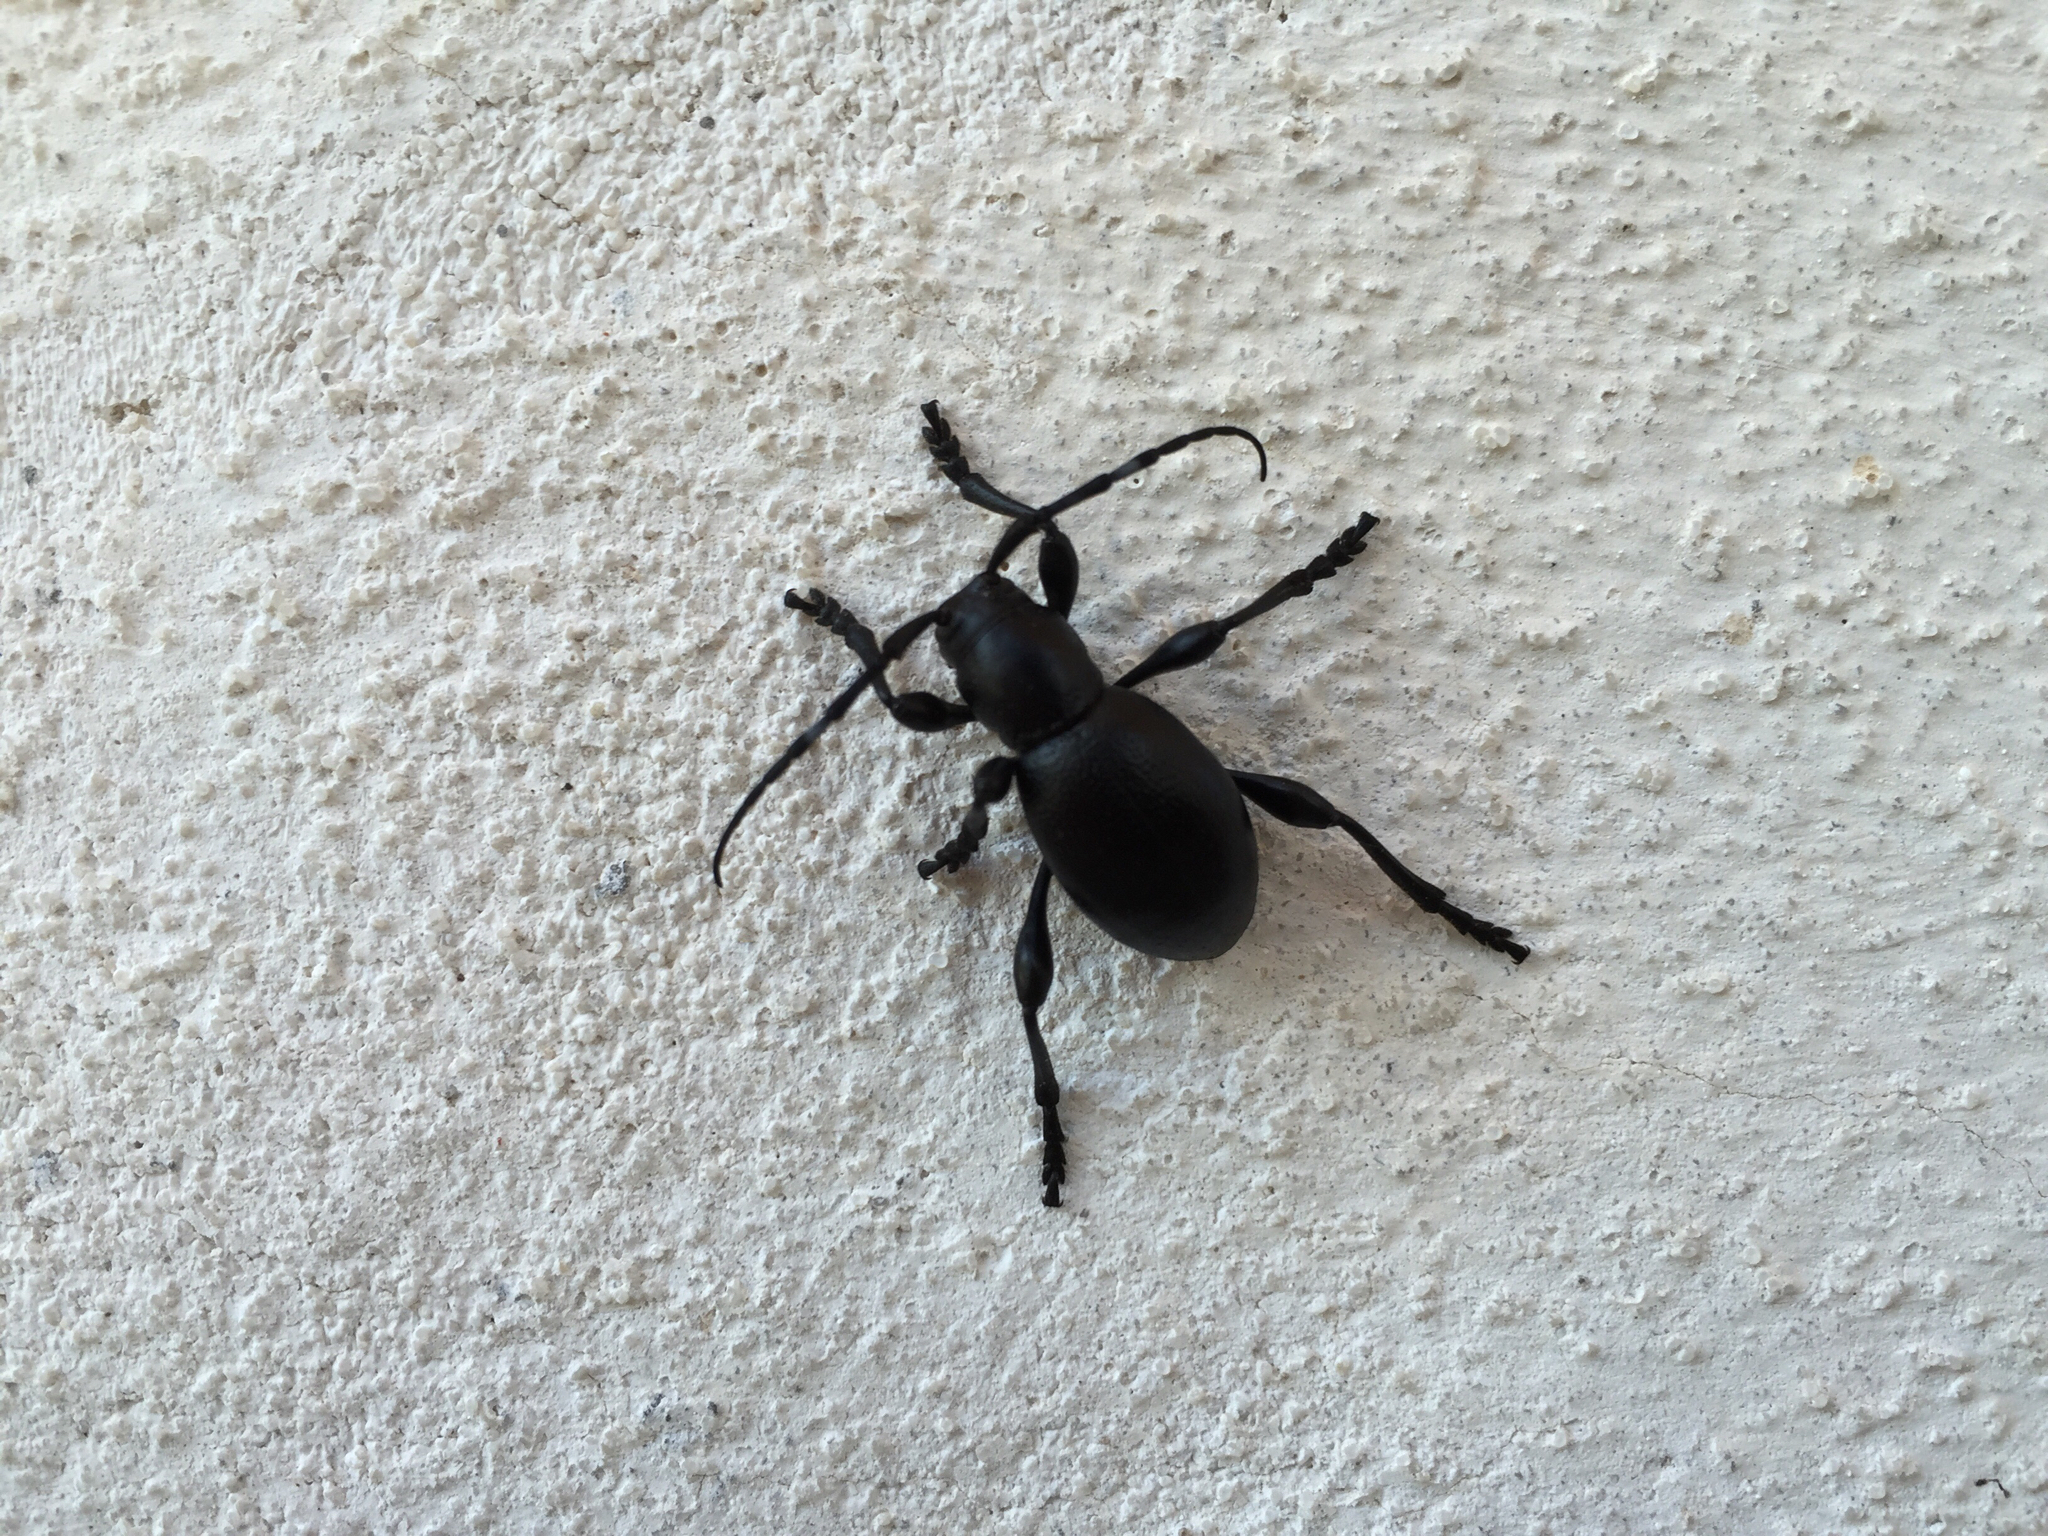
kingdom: Animalia
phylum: Arthropoda
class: Insecta
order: Coleoptera
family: Cerambycidae
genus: Moneilema
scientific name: Moneilema appressum
